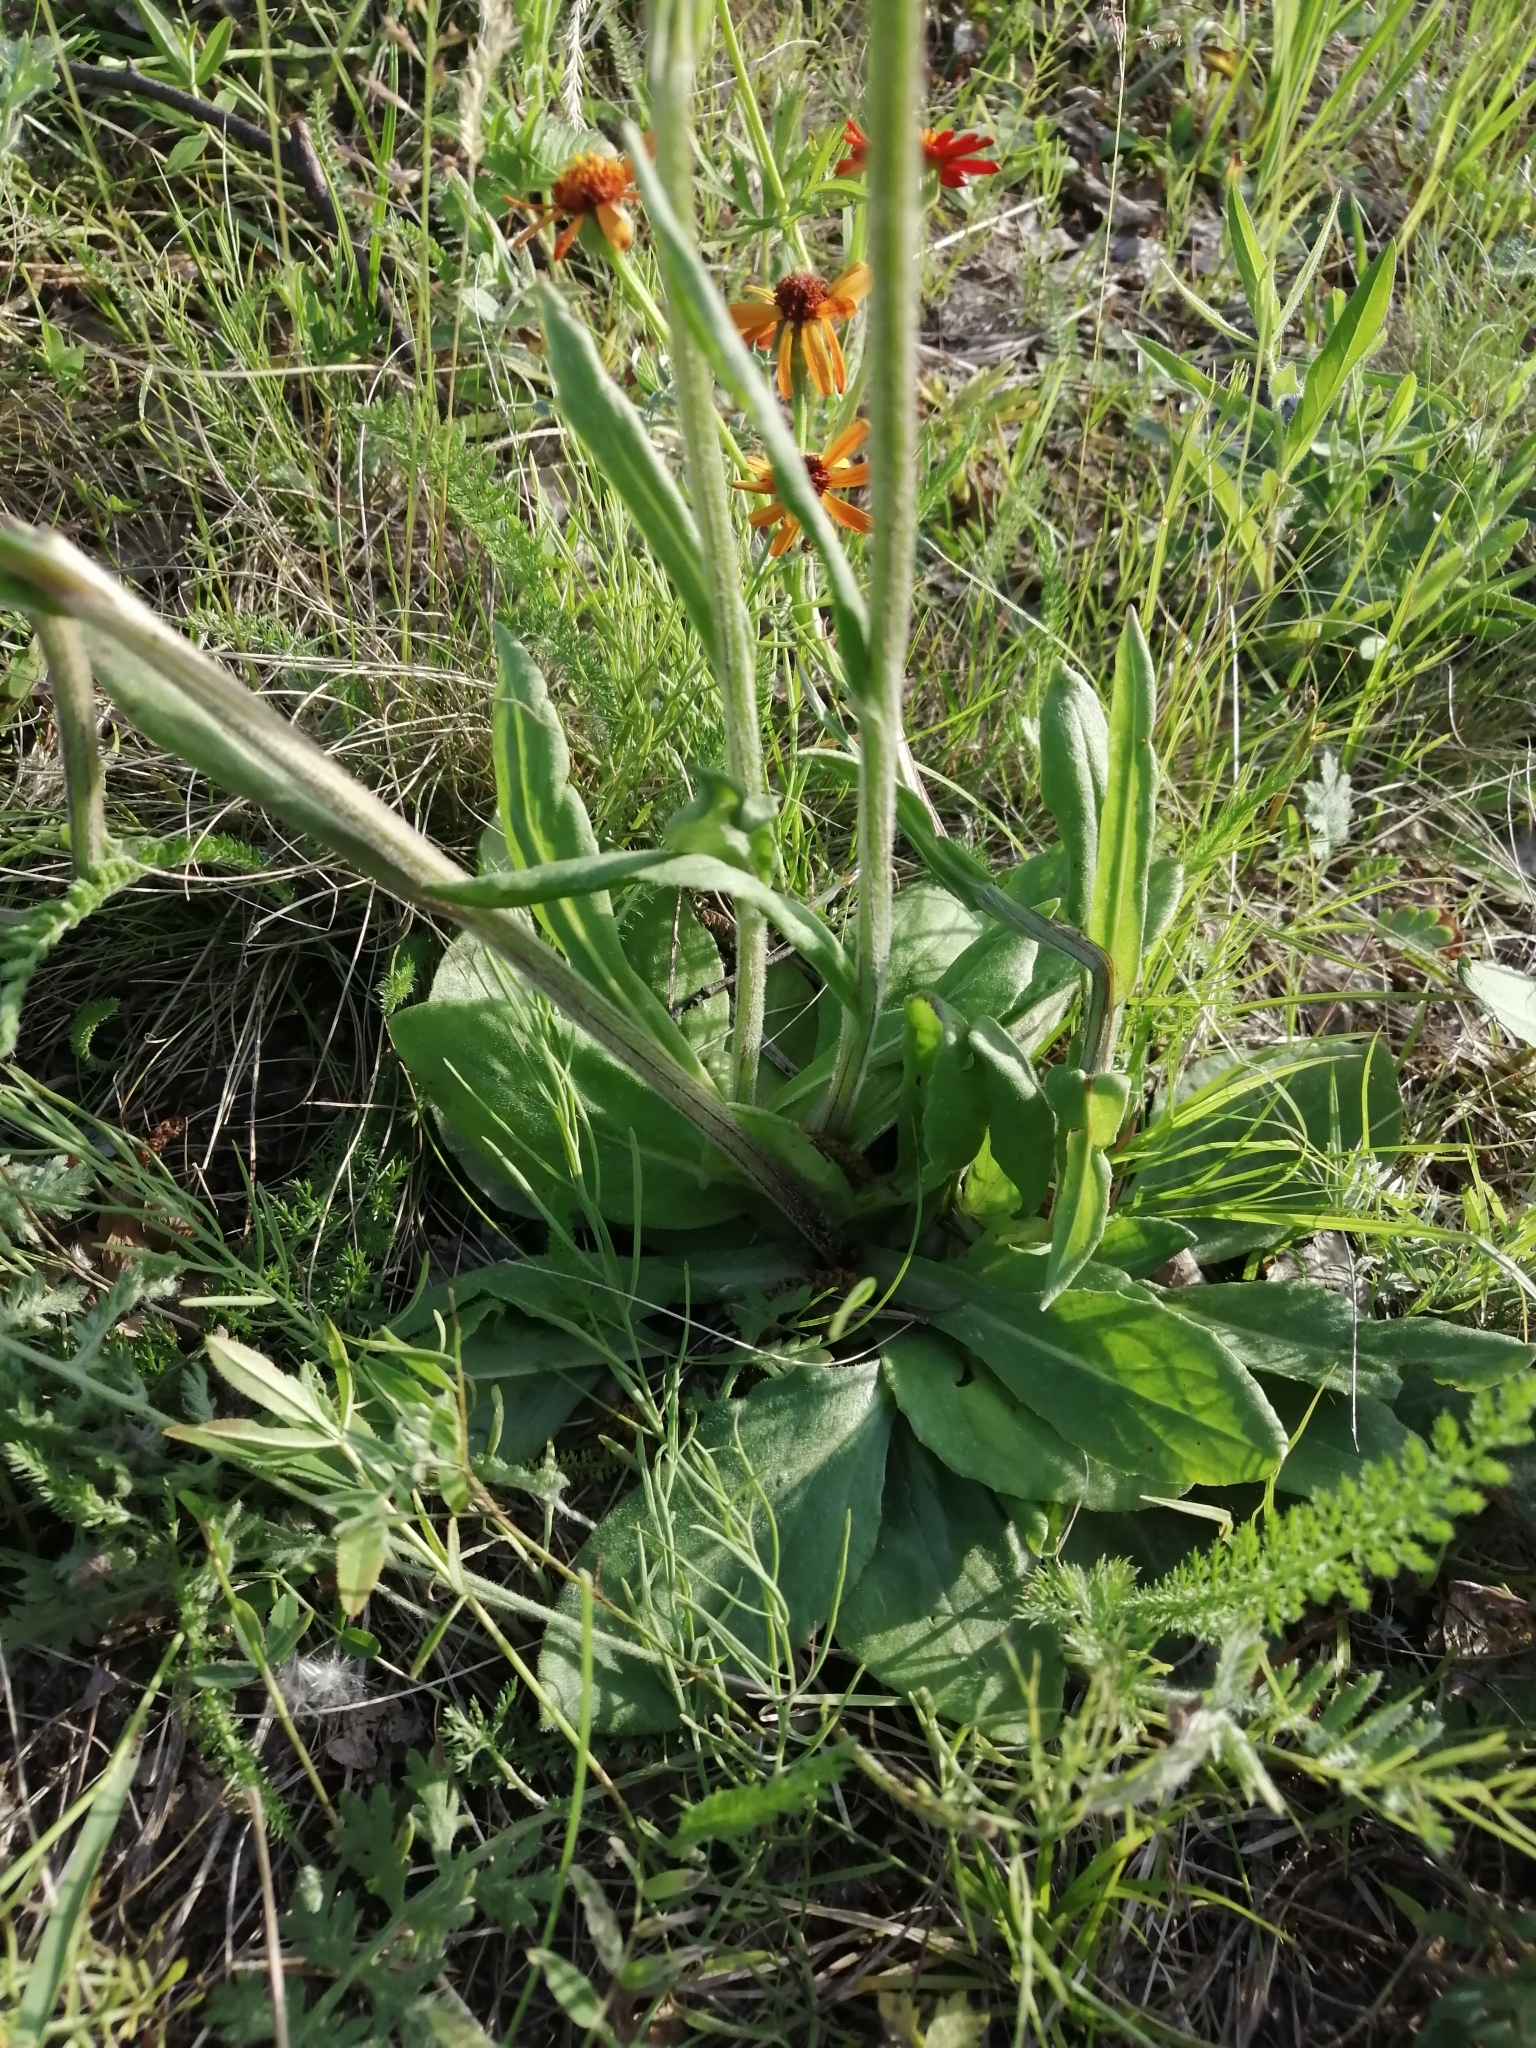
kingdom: Plantae
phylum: Tracheophyta
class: Magnoliopsida
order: Asterales
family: Asteraceae
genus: Tephroseris
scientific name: Tephroseris porphyrantha
